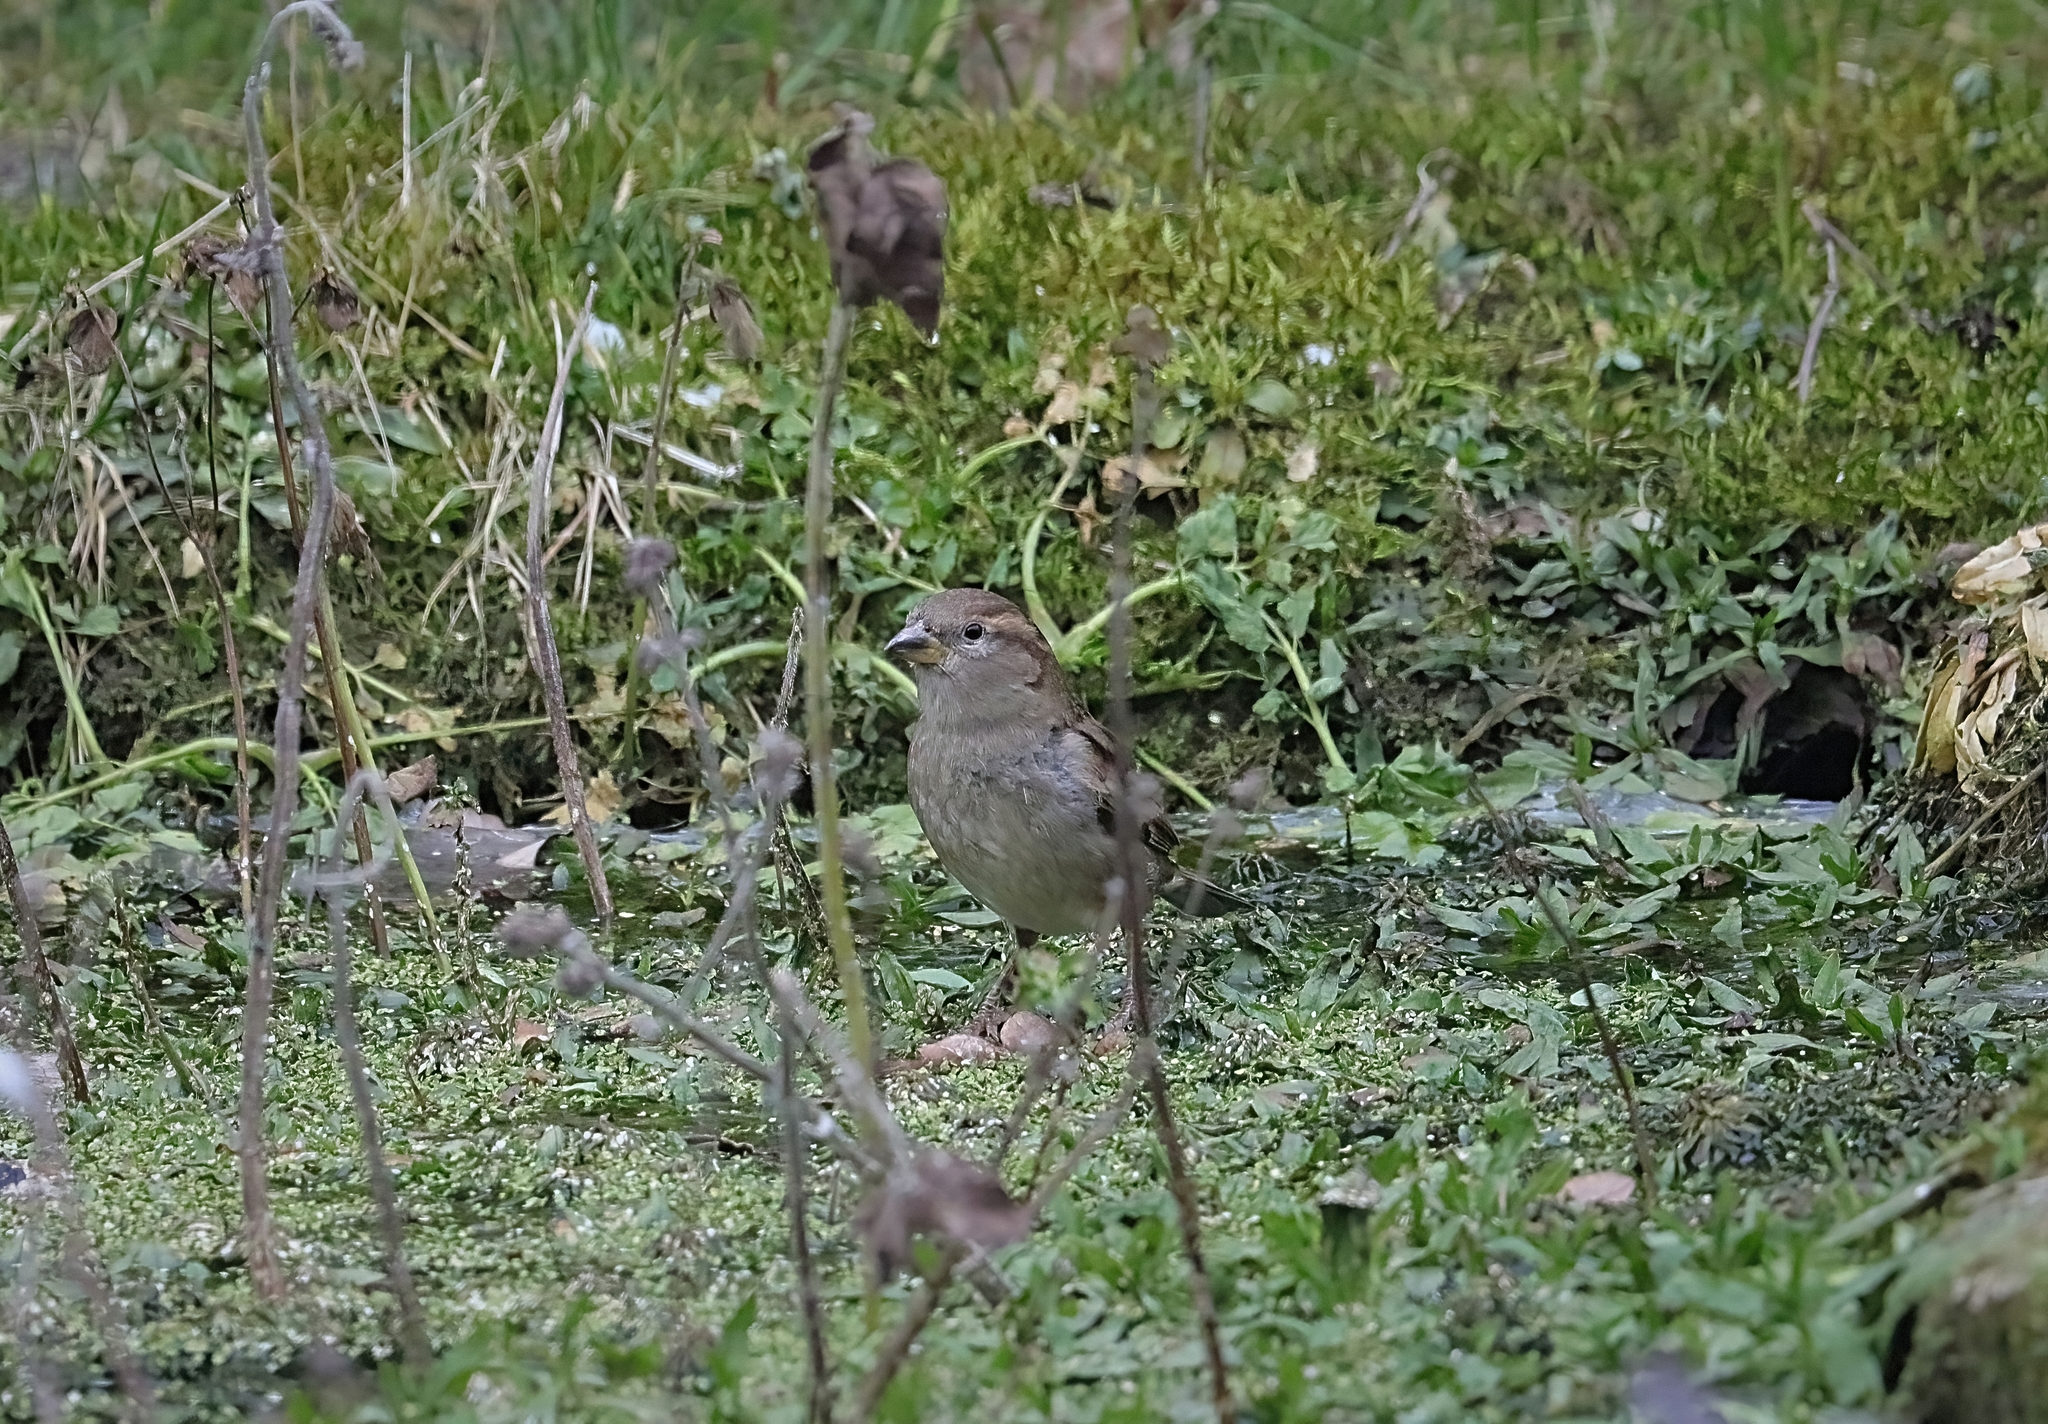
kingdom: Animalia
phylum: Chordata
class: Aves
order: Passeriformes
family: Passeridae
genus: Passer
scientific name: Passer domesticus
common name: House sparrow
